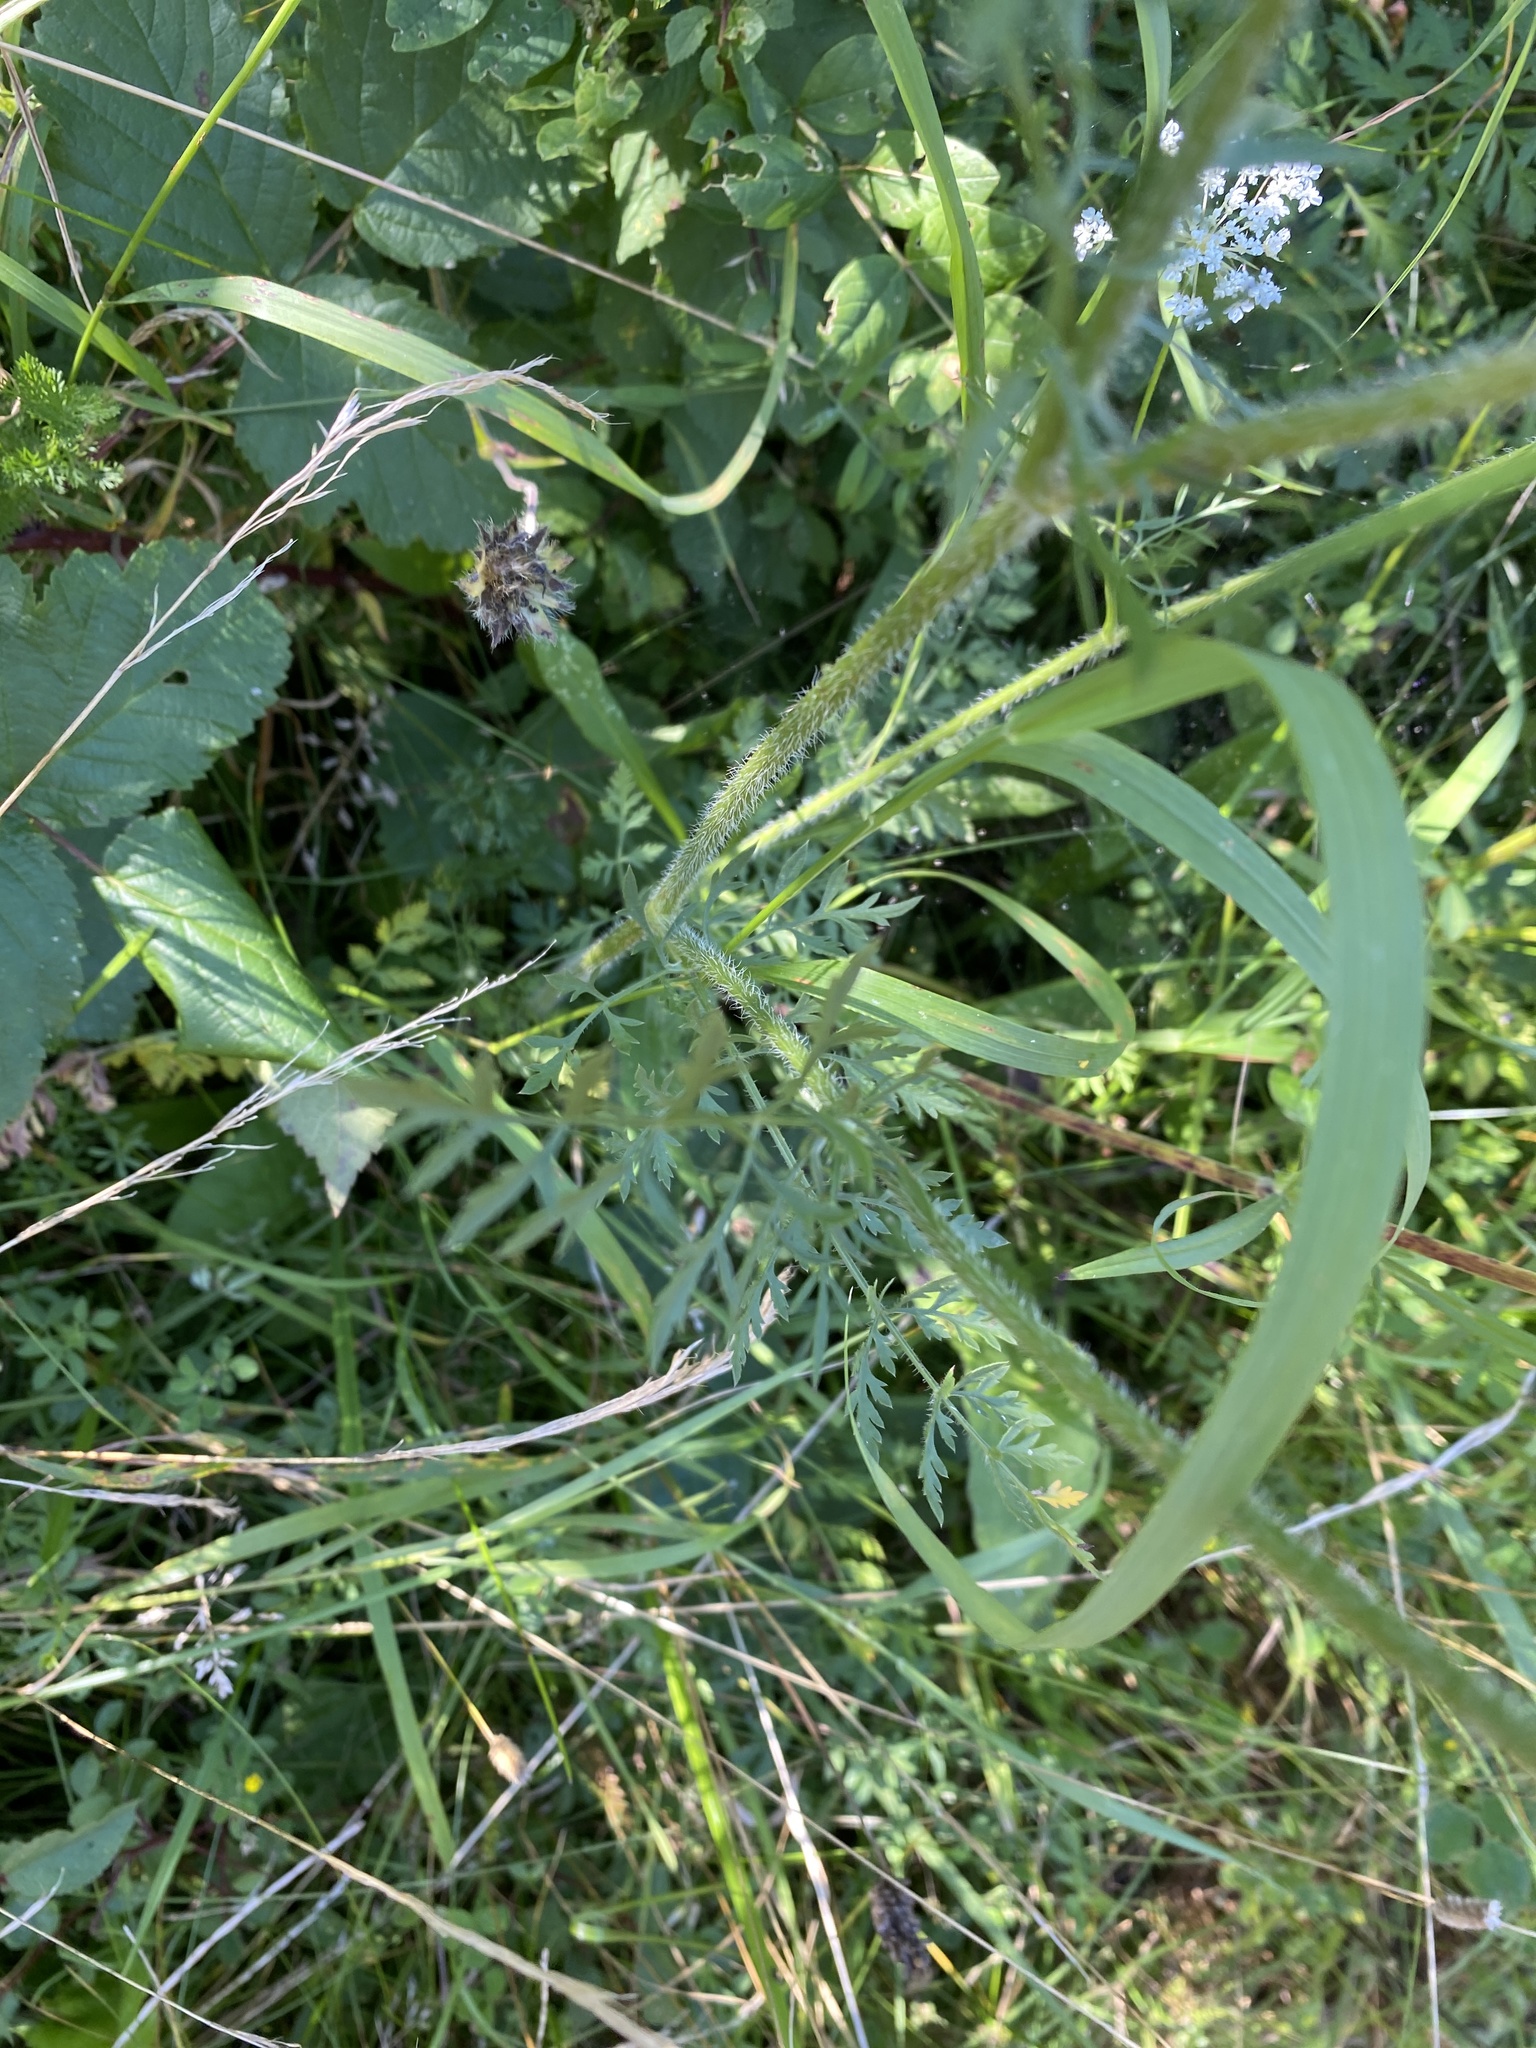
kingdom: Plantae
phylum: Tracheophyta
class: Magnoliopsida
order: Apiales
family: Apiaceae
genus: Daucus
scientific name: Daucus carota
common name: Wild carrot
